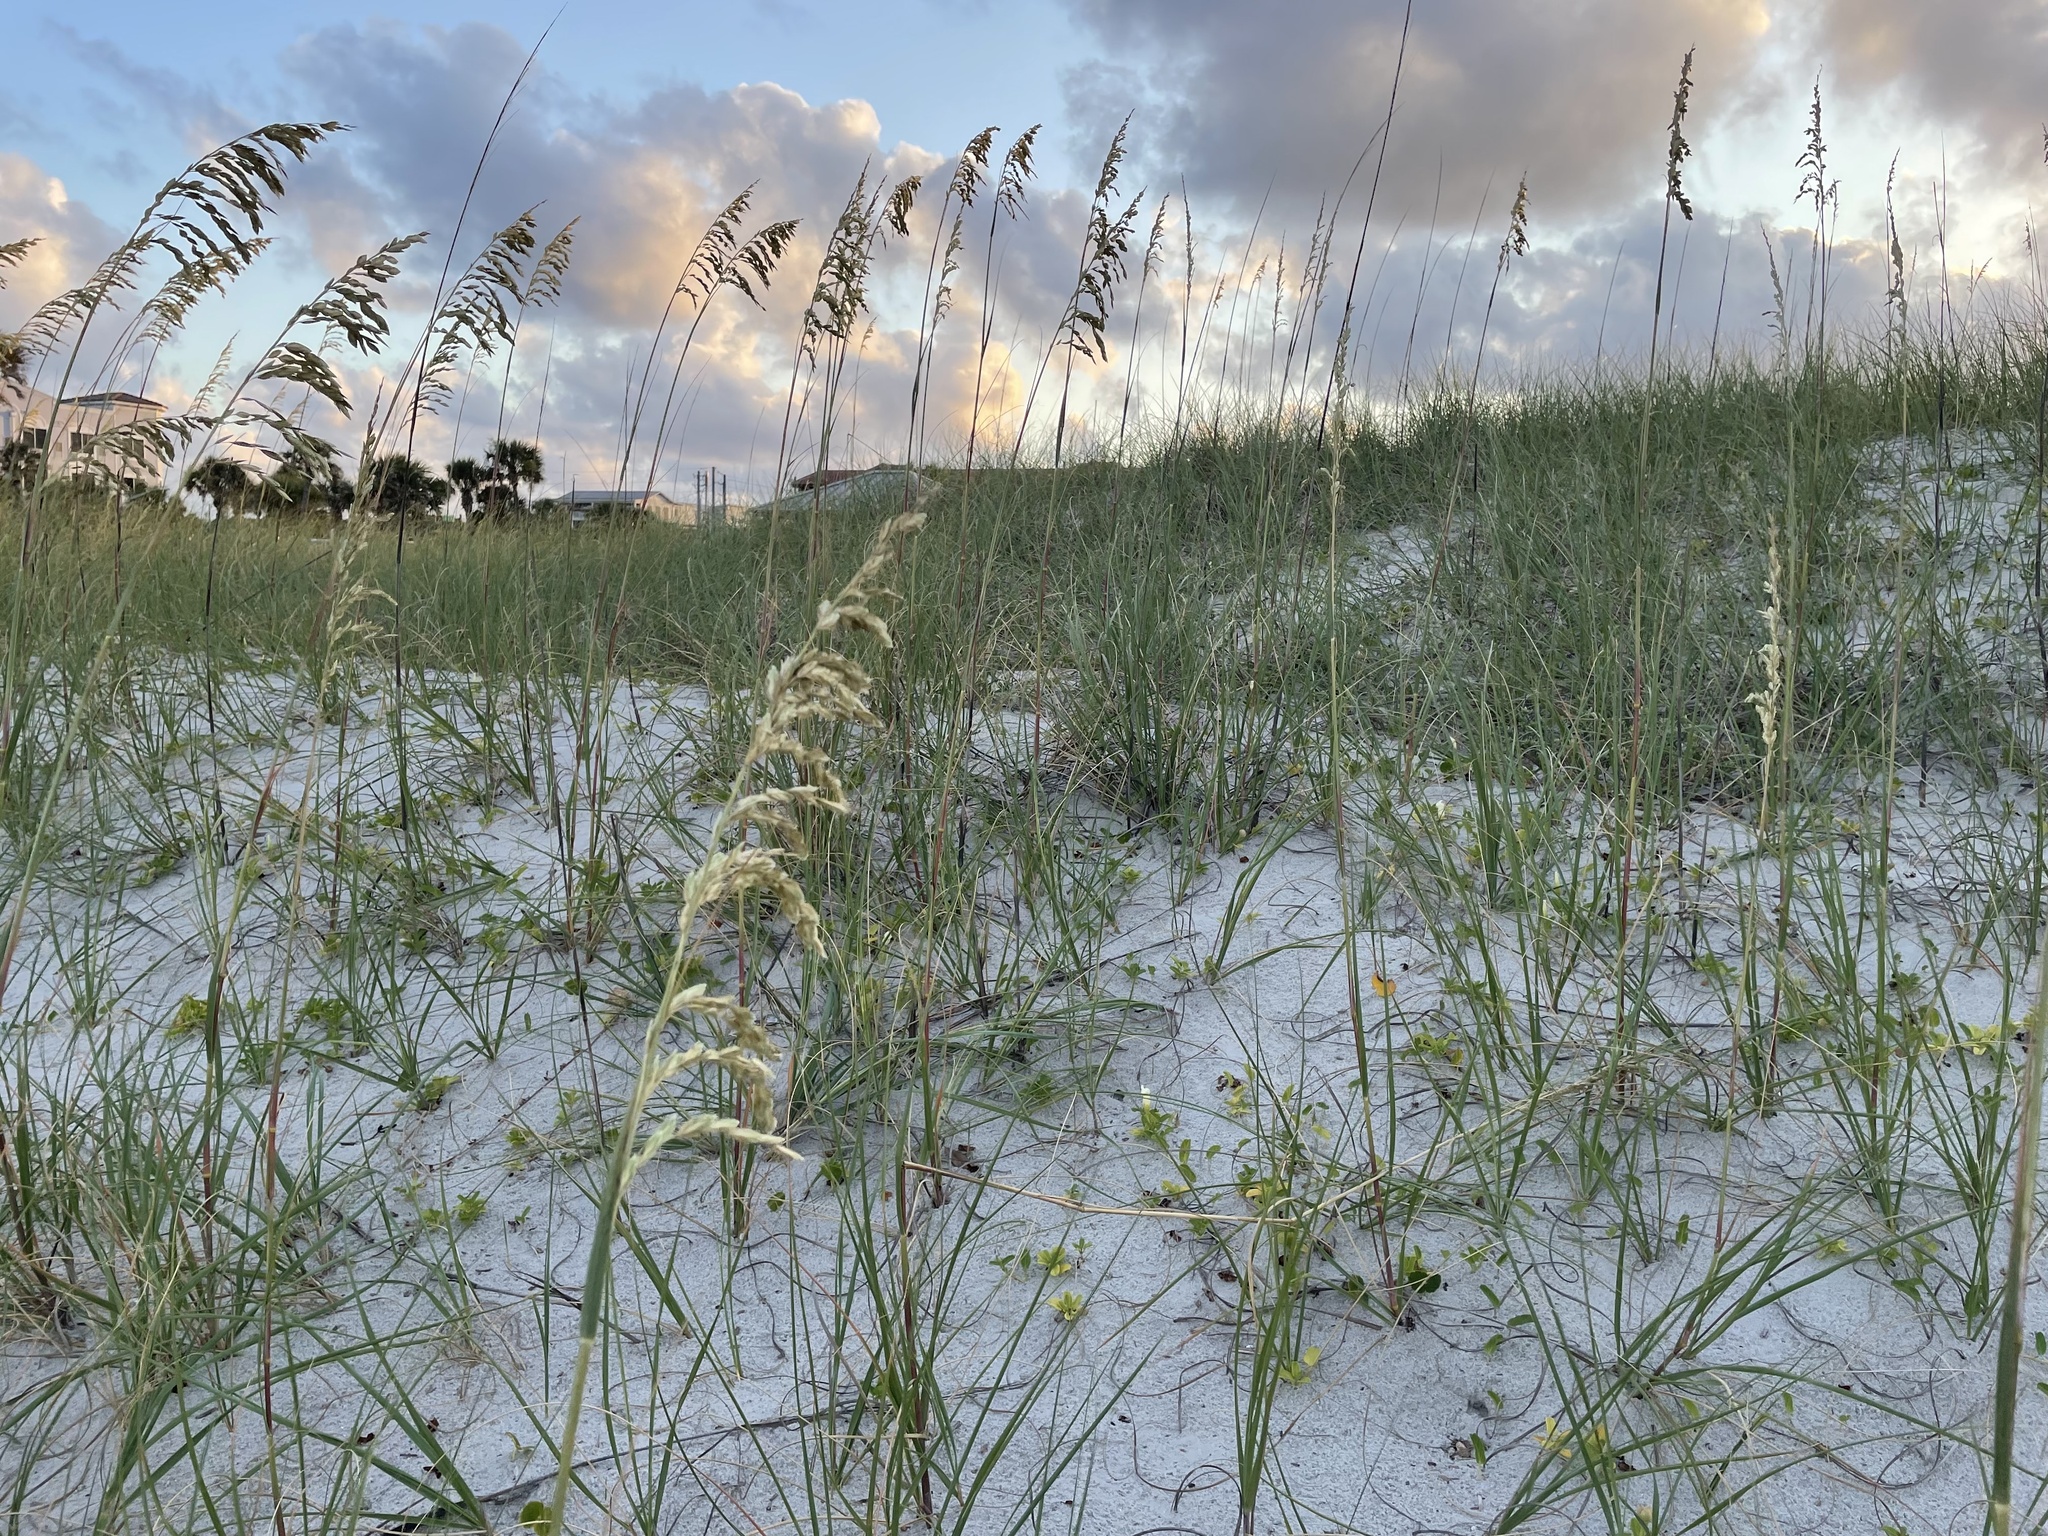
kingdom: Plantae
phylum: Tracheophyta
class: Liliopsida
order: Poales
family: Poaceae
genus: Uniola
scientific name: Uniola paniculata
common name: Seaside-oats
